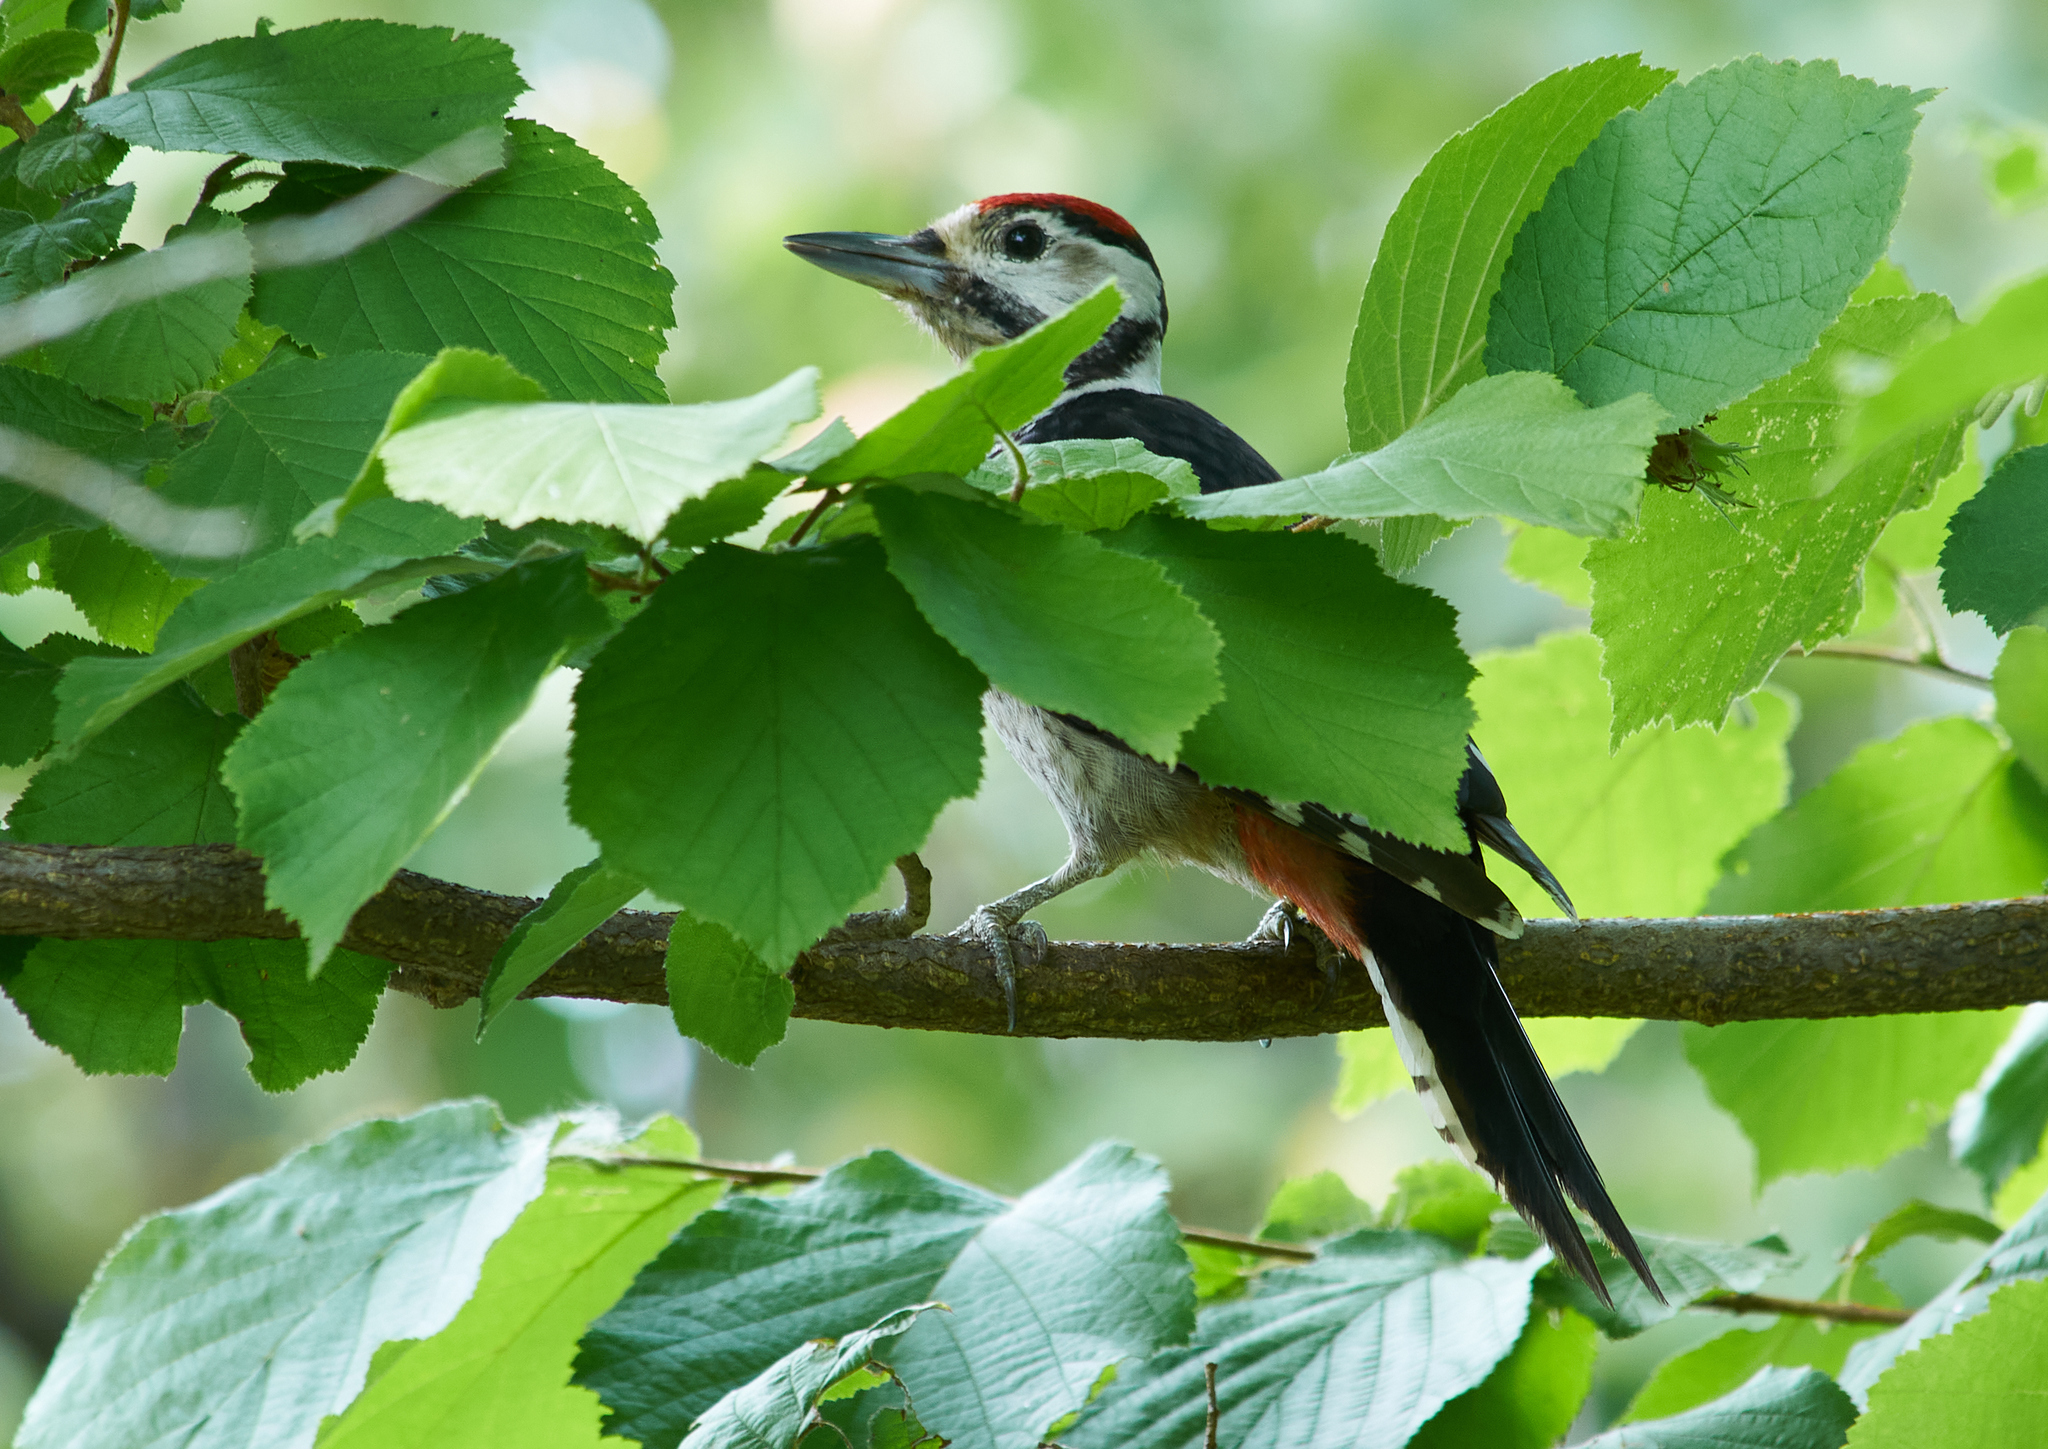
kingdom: Animalia
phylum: Chordata
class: Aves
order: Piciformes
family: Picidae
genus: Dendrocopos
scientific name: Dendrocopos major
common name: Great spotted woodpecker
